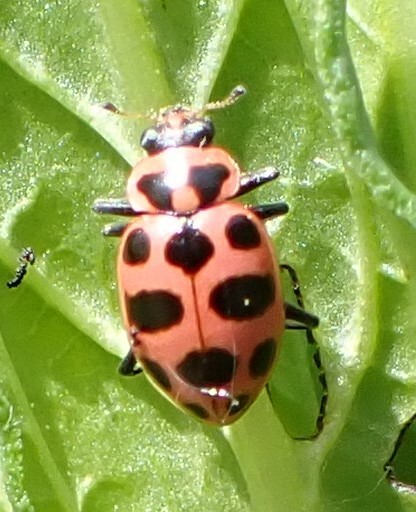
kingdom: Animalia
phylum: Arthropoda
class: Insecta
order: Coleoptera
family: Coccinellidae
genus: Coleomegilla
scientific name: Coleomegilla maculata
